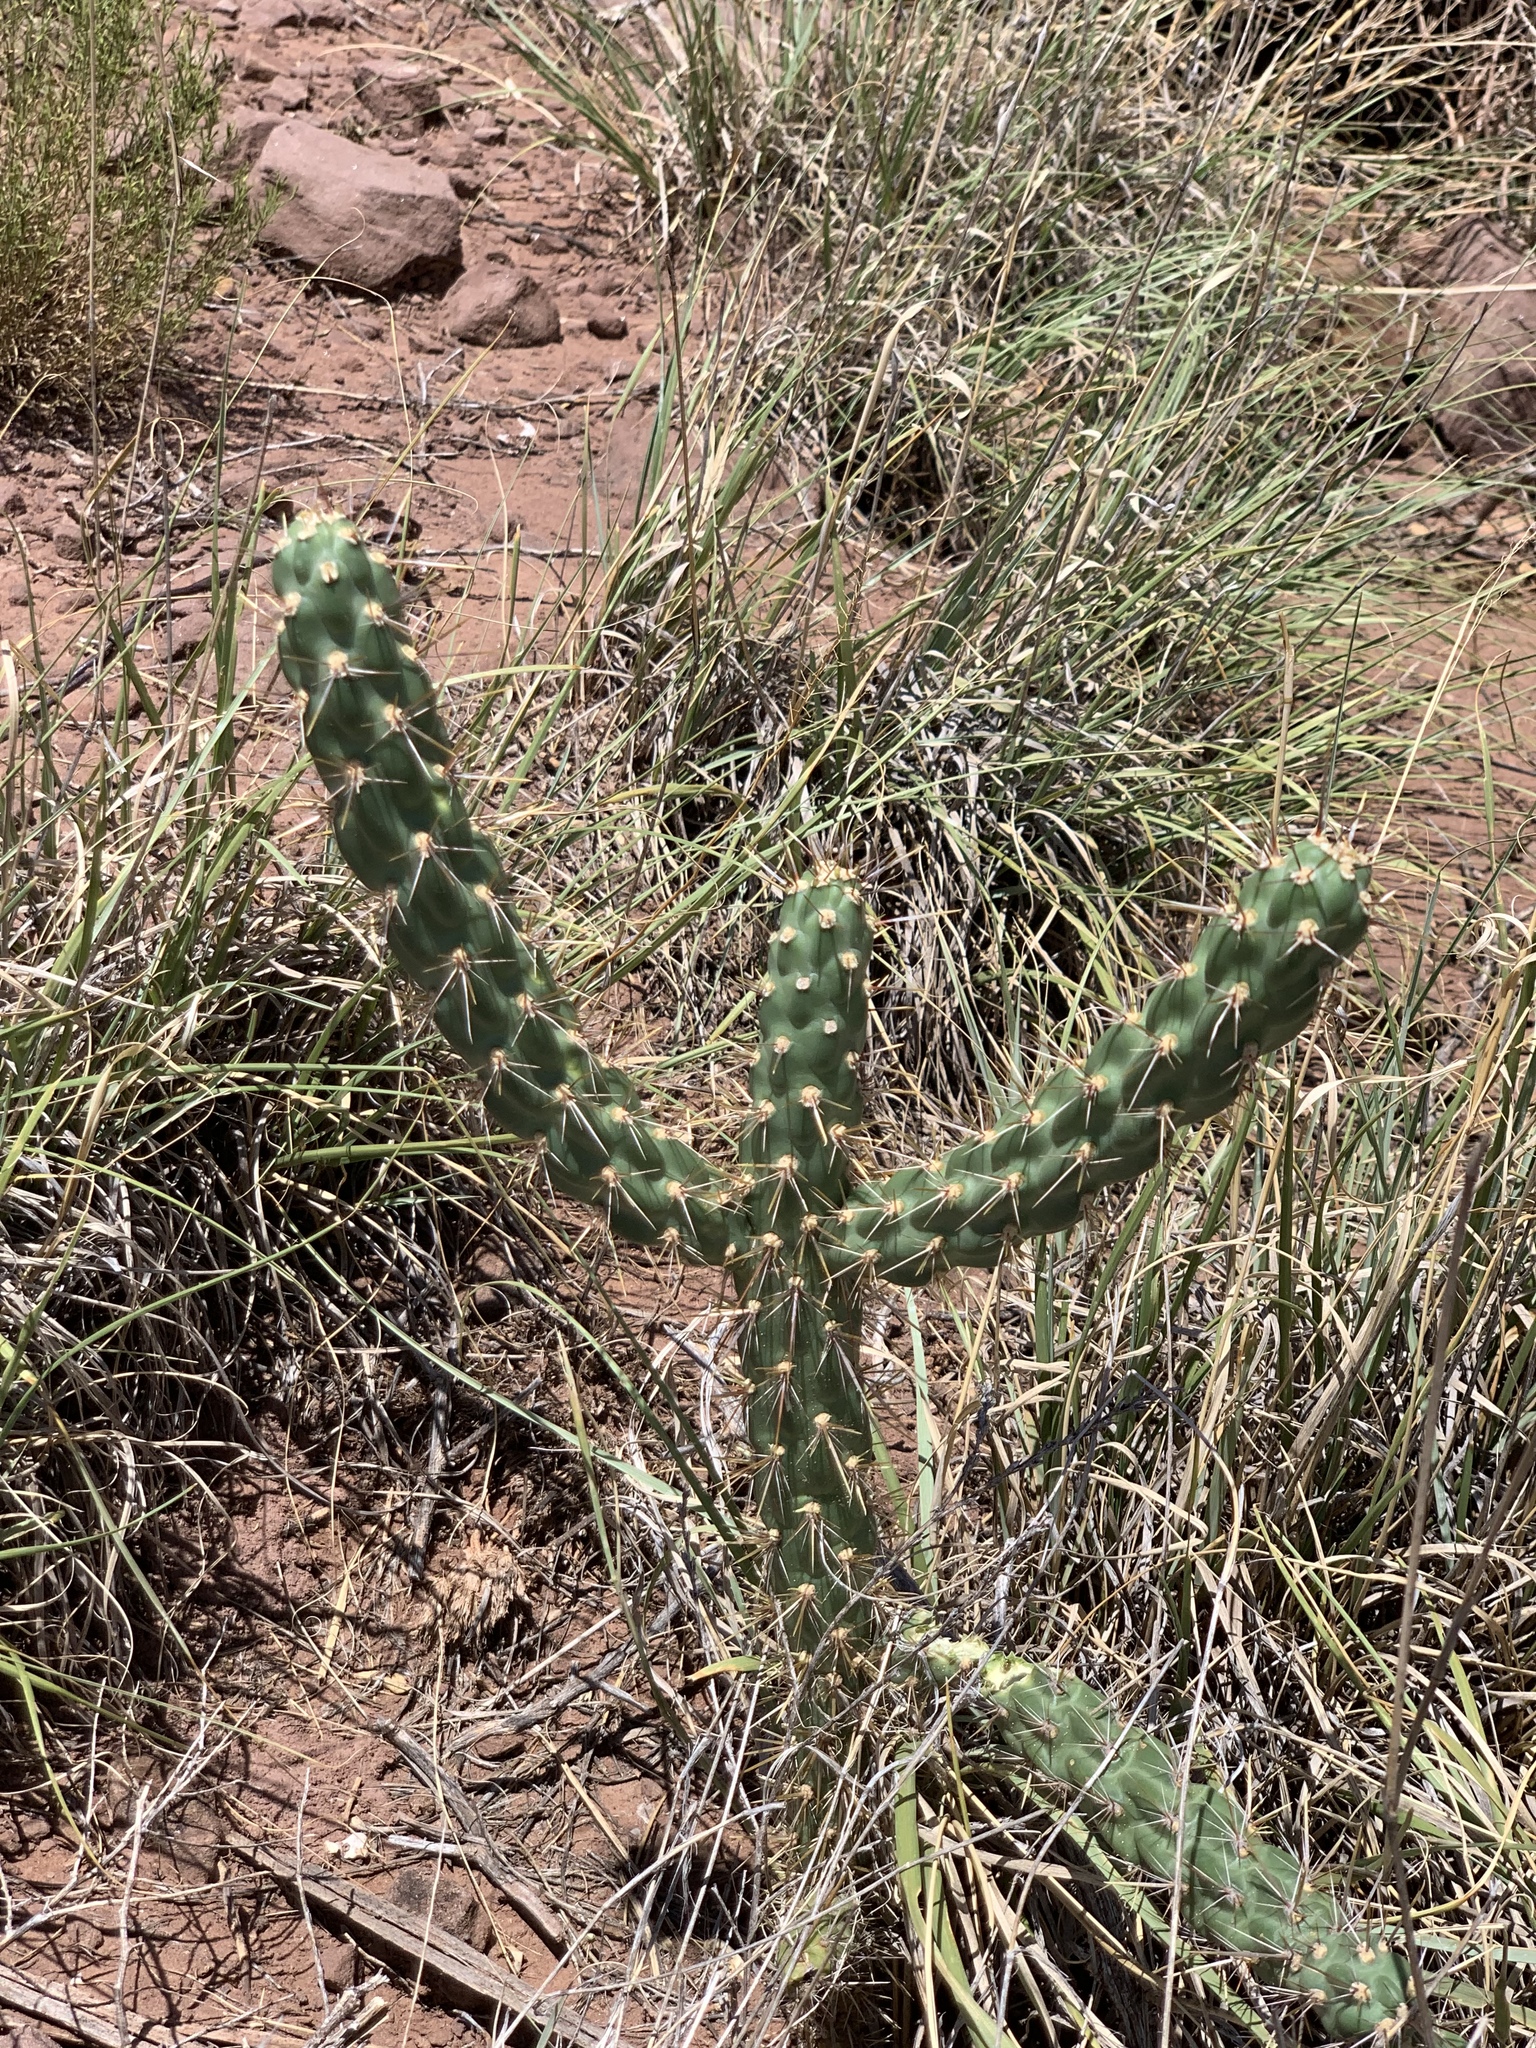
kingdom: Plantae
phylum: Tracheophyta
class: Magnoliopsida
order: Caryophyllales
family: Cactaceae
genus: Cylindropuntia
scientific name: Cylindropuntia imbricata
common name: Candelabrum cactus
